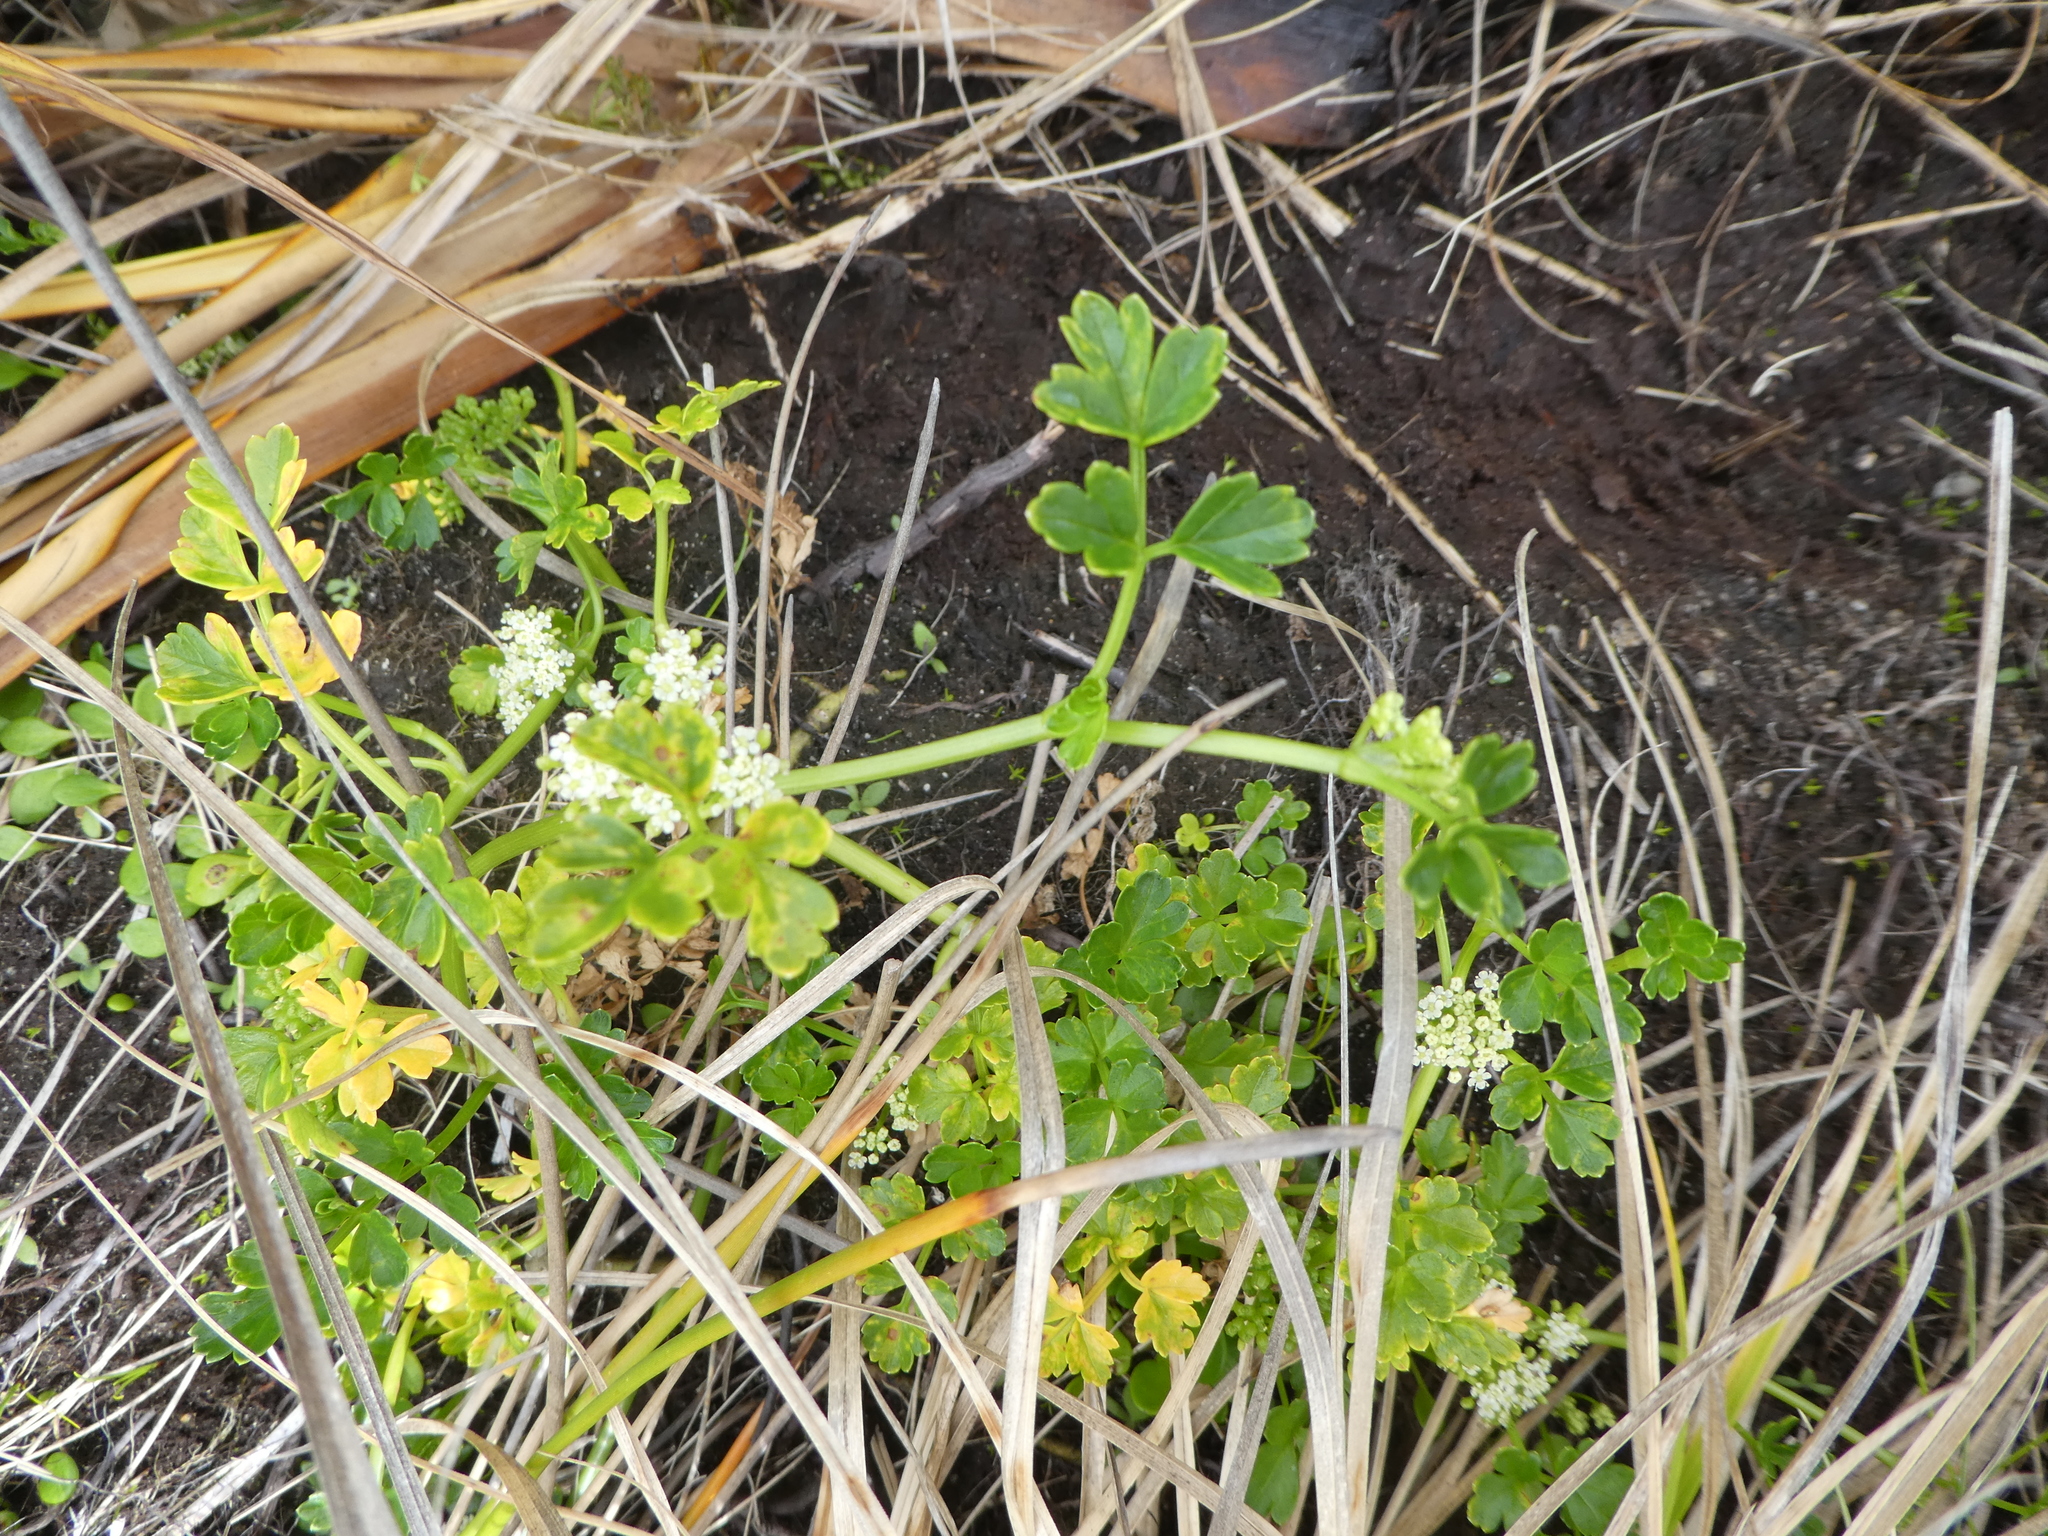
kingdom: Plantae
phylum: Tracheophyta
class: Magnoliopsida
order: Apiales
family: Apiaceae
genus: Apium
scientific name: Apium prostratum
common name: Prostrate marshwort
